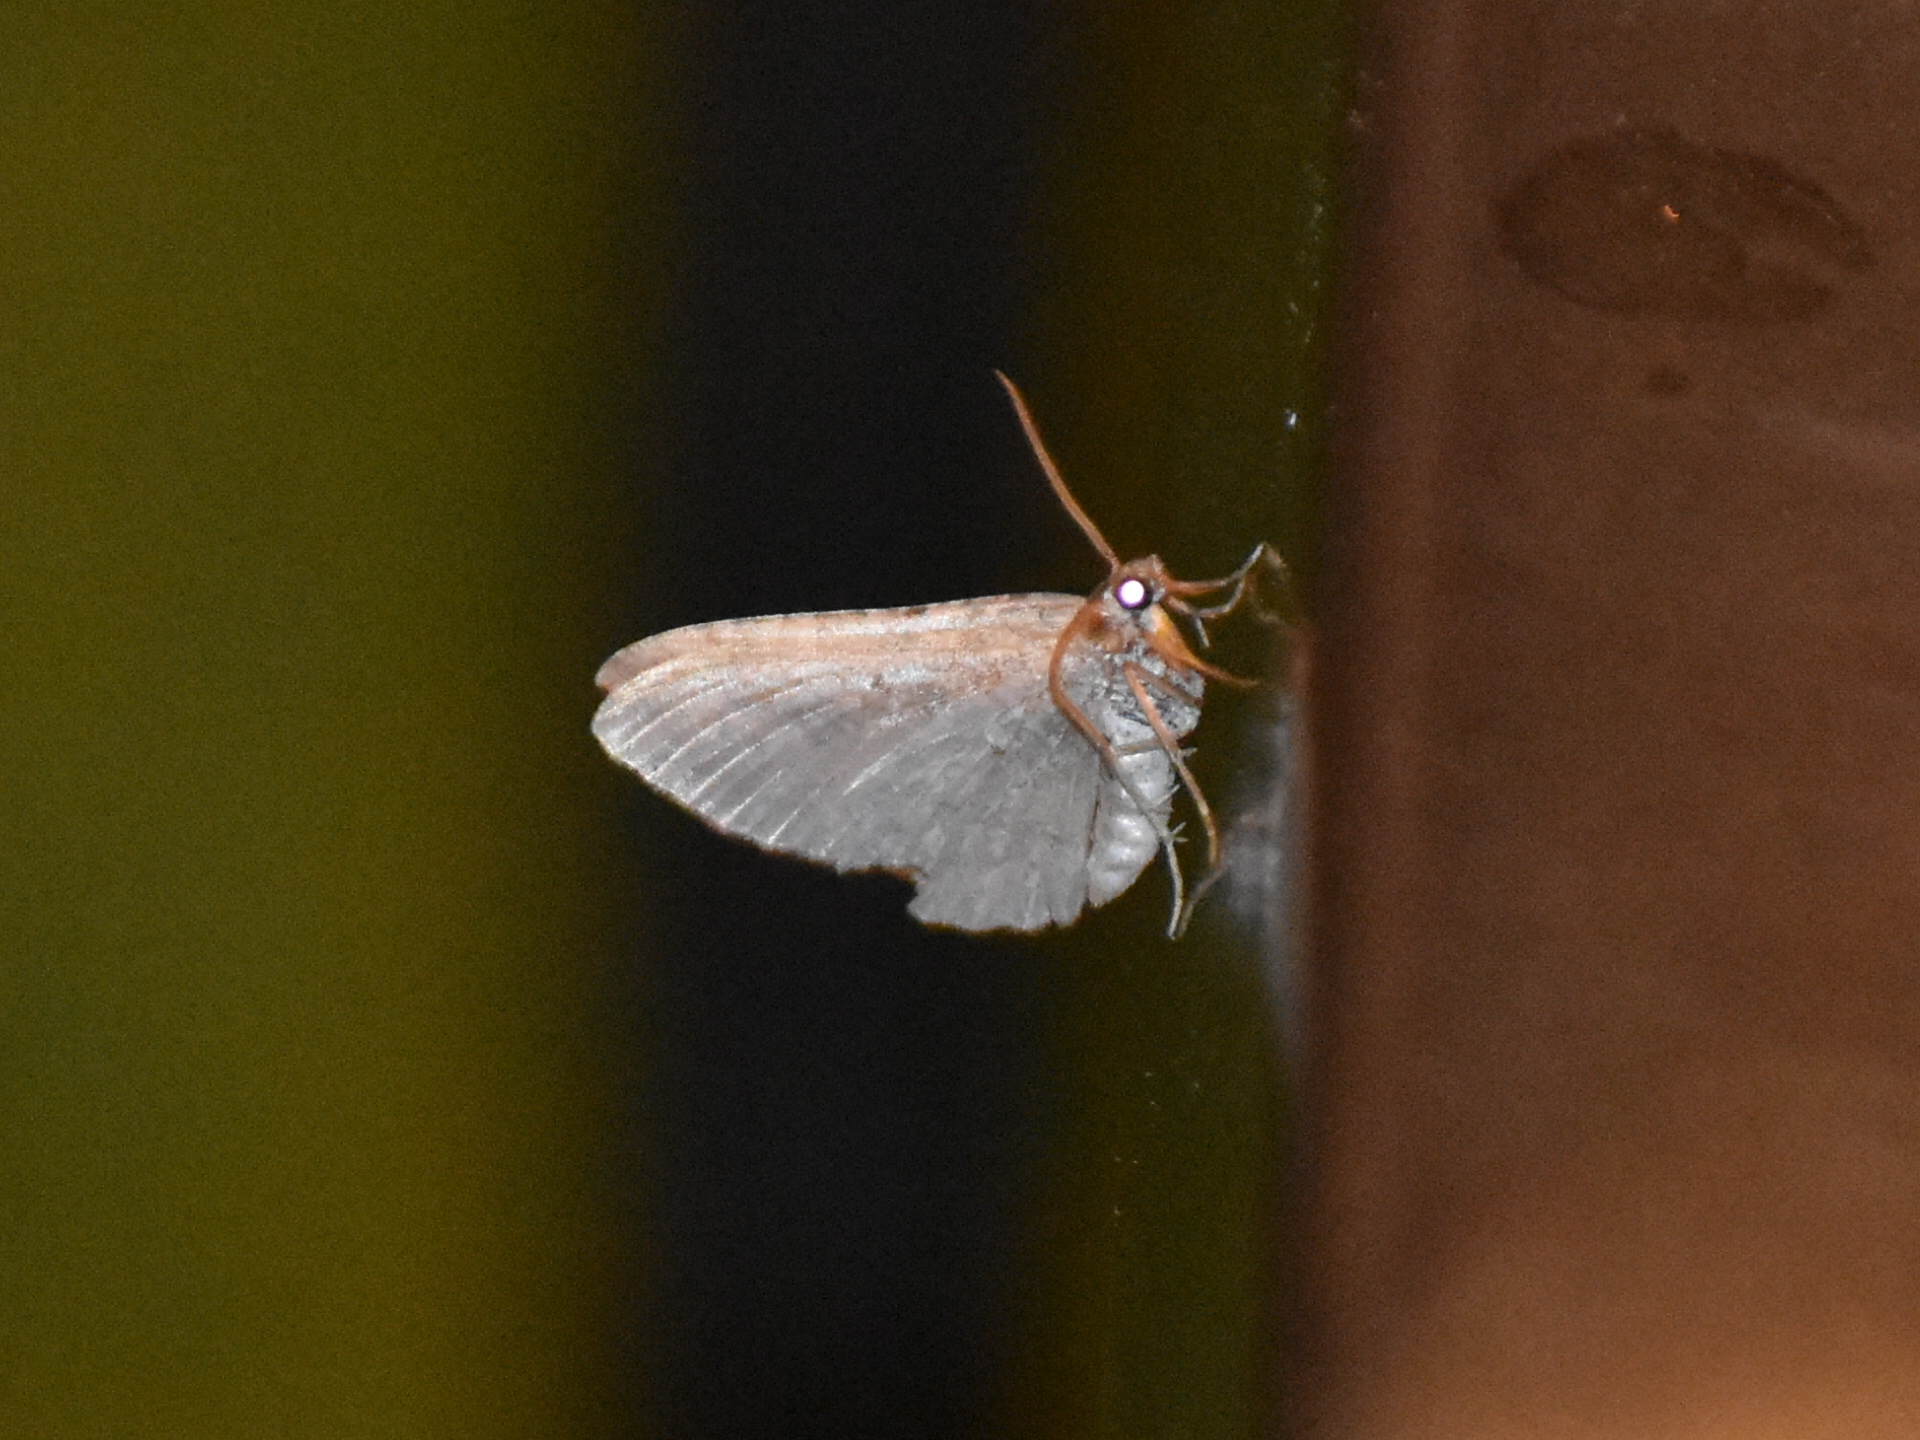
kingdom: Animalia
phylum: Arthropoda
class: Insecta
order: Lepidoptera
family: Geometridae
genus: Costaconvexa
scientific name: Costaconvexa centrostrigaria
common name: Bent-line carpet
